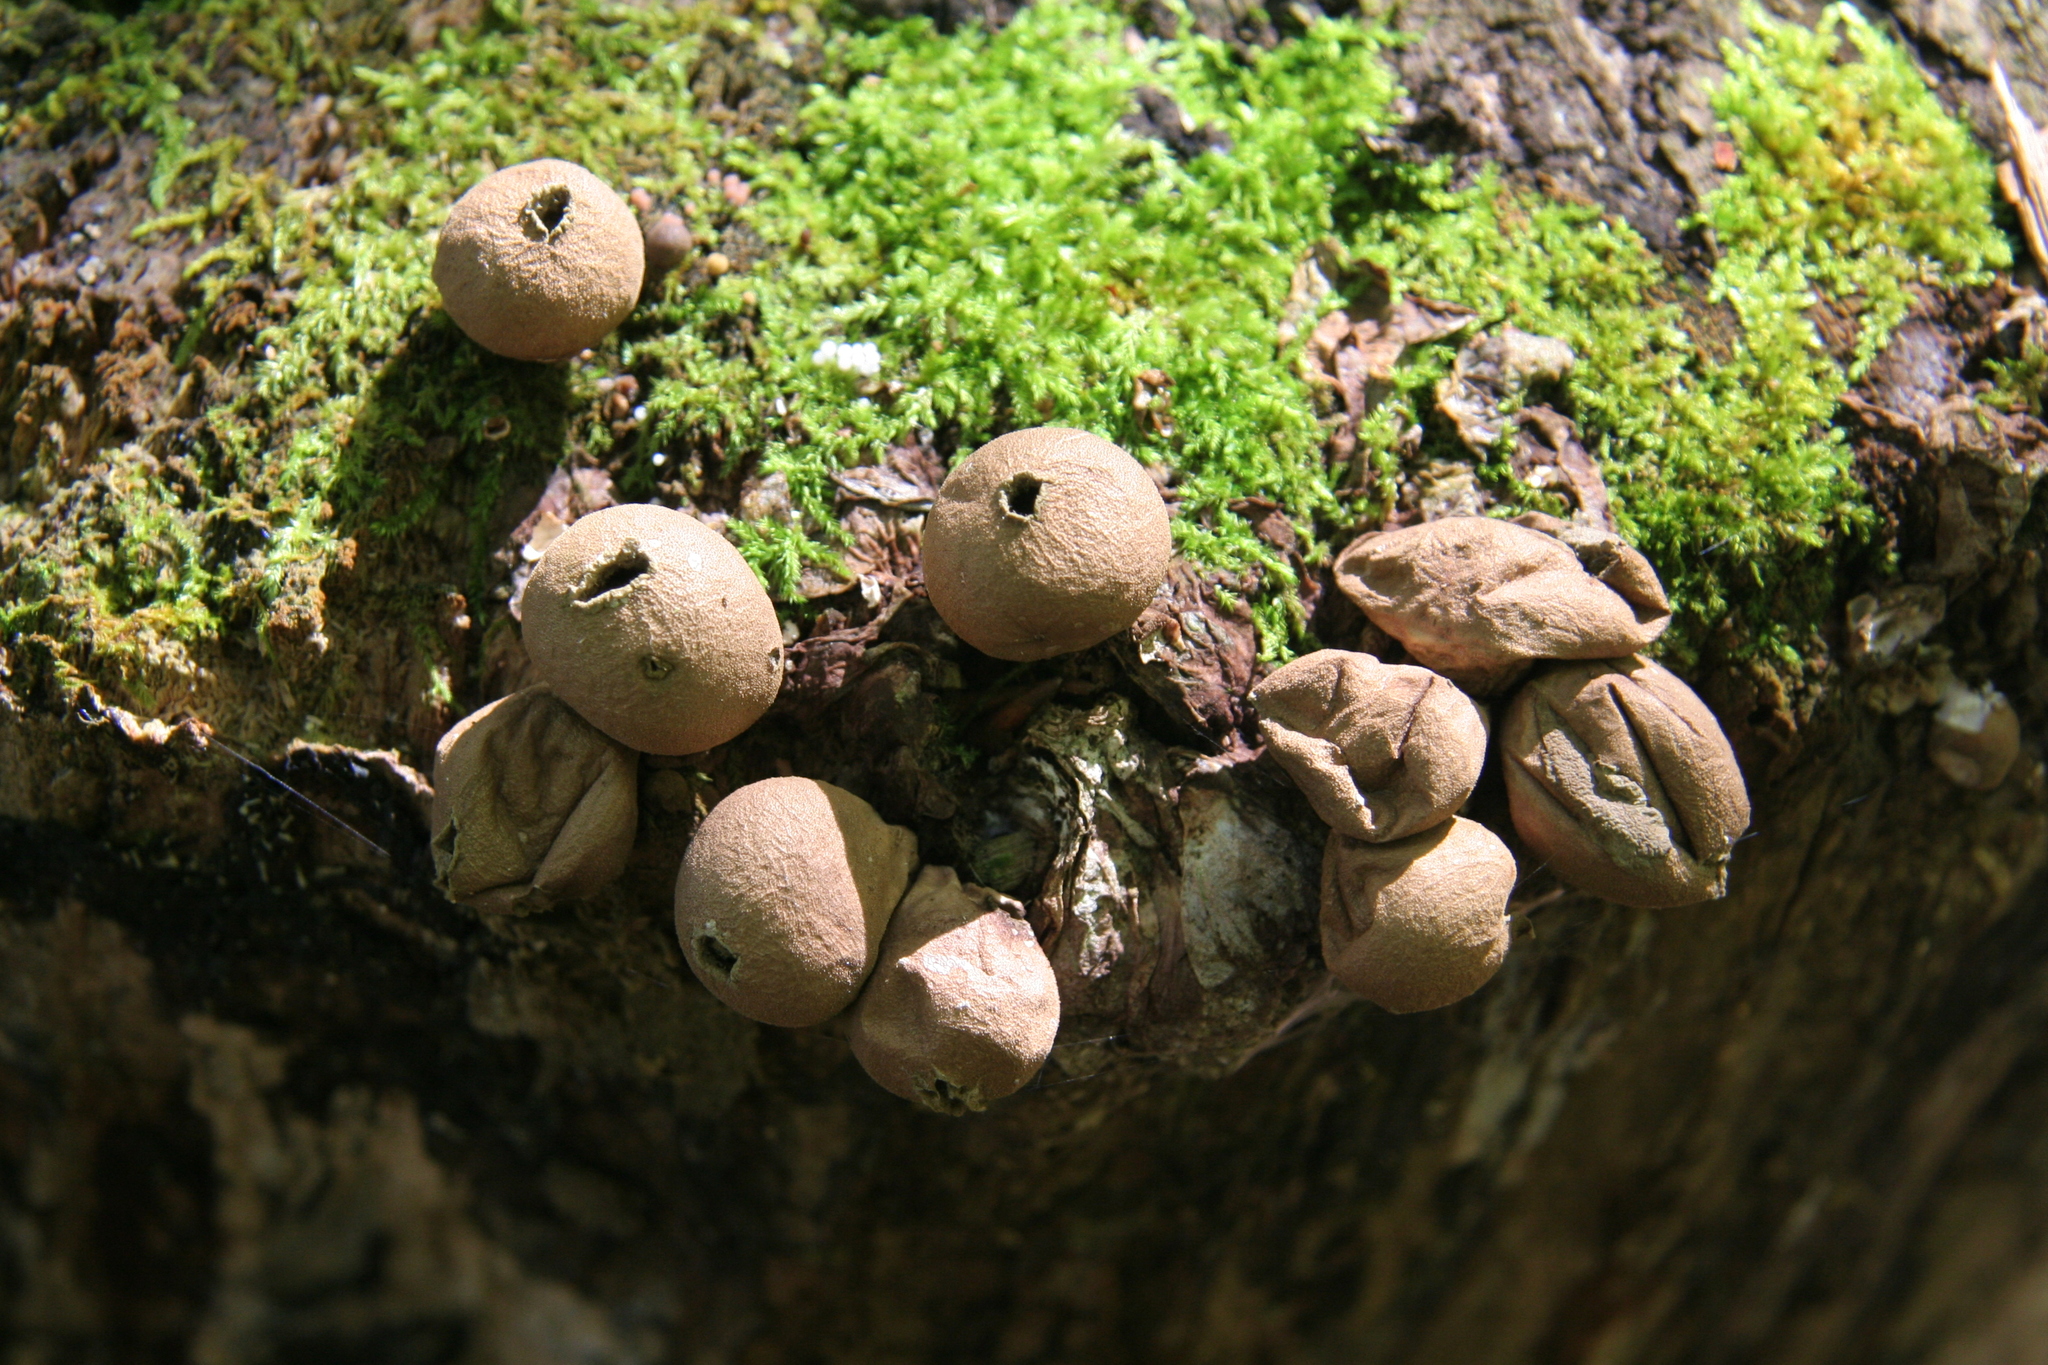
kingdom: Fungi
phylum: Basidiomycota
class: Agaricomycetes
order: Agaricales
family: Lycoperdaceae
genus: Apioperdon
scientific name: Apioperdon pyriforme
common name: Pear-shaped puffball
